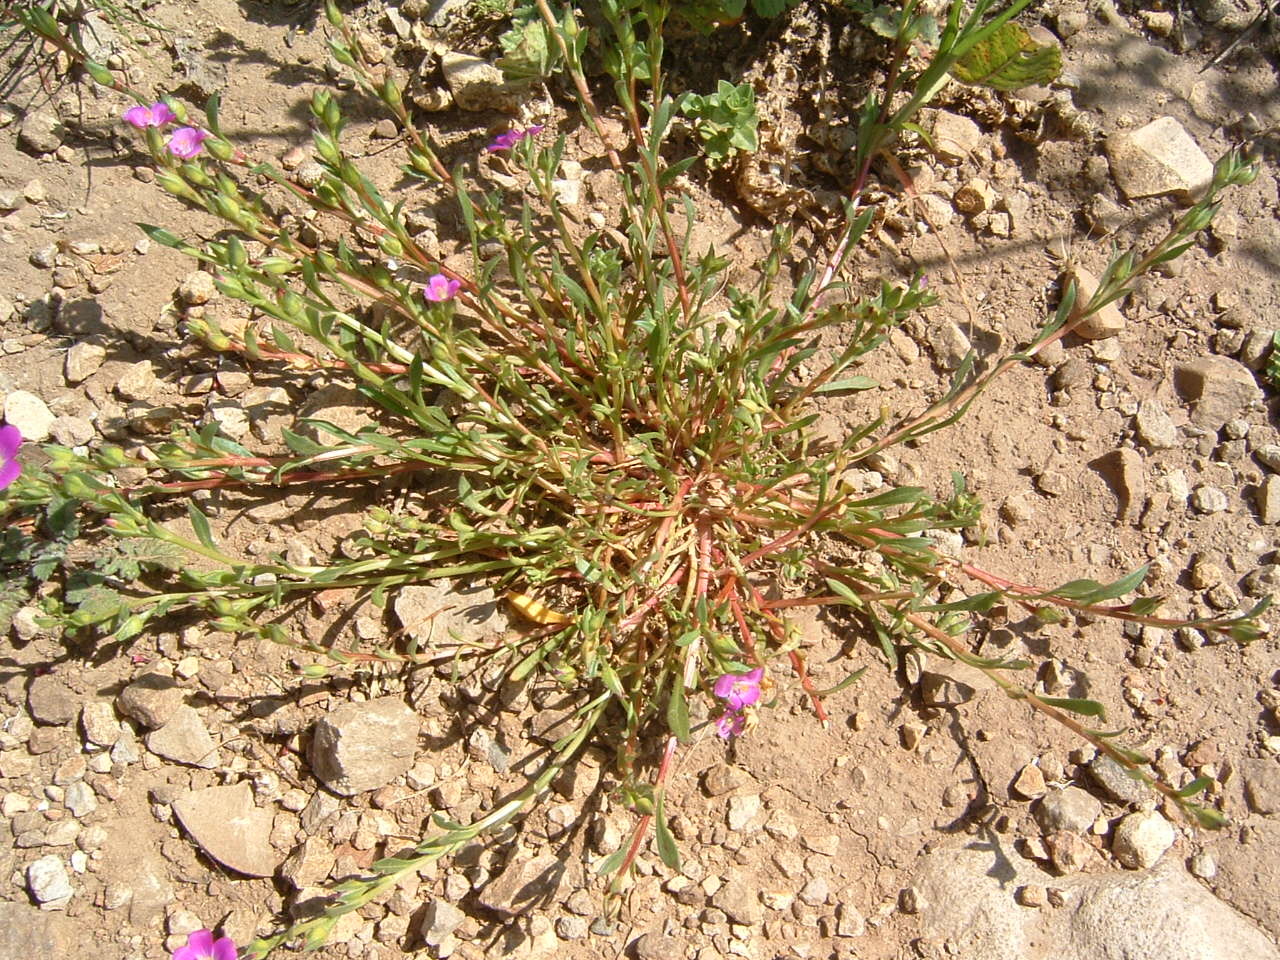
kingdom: Plantae
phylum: Tracheophyta
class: Magnoliopsida
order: Caryophyllales
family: Montiaceae
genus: Calandrinia
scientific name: Calandrinia menziesii
